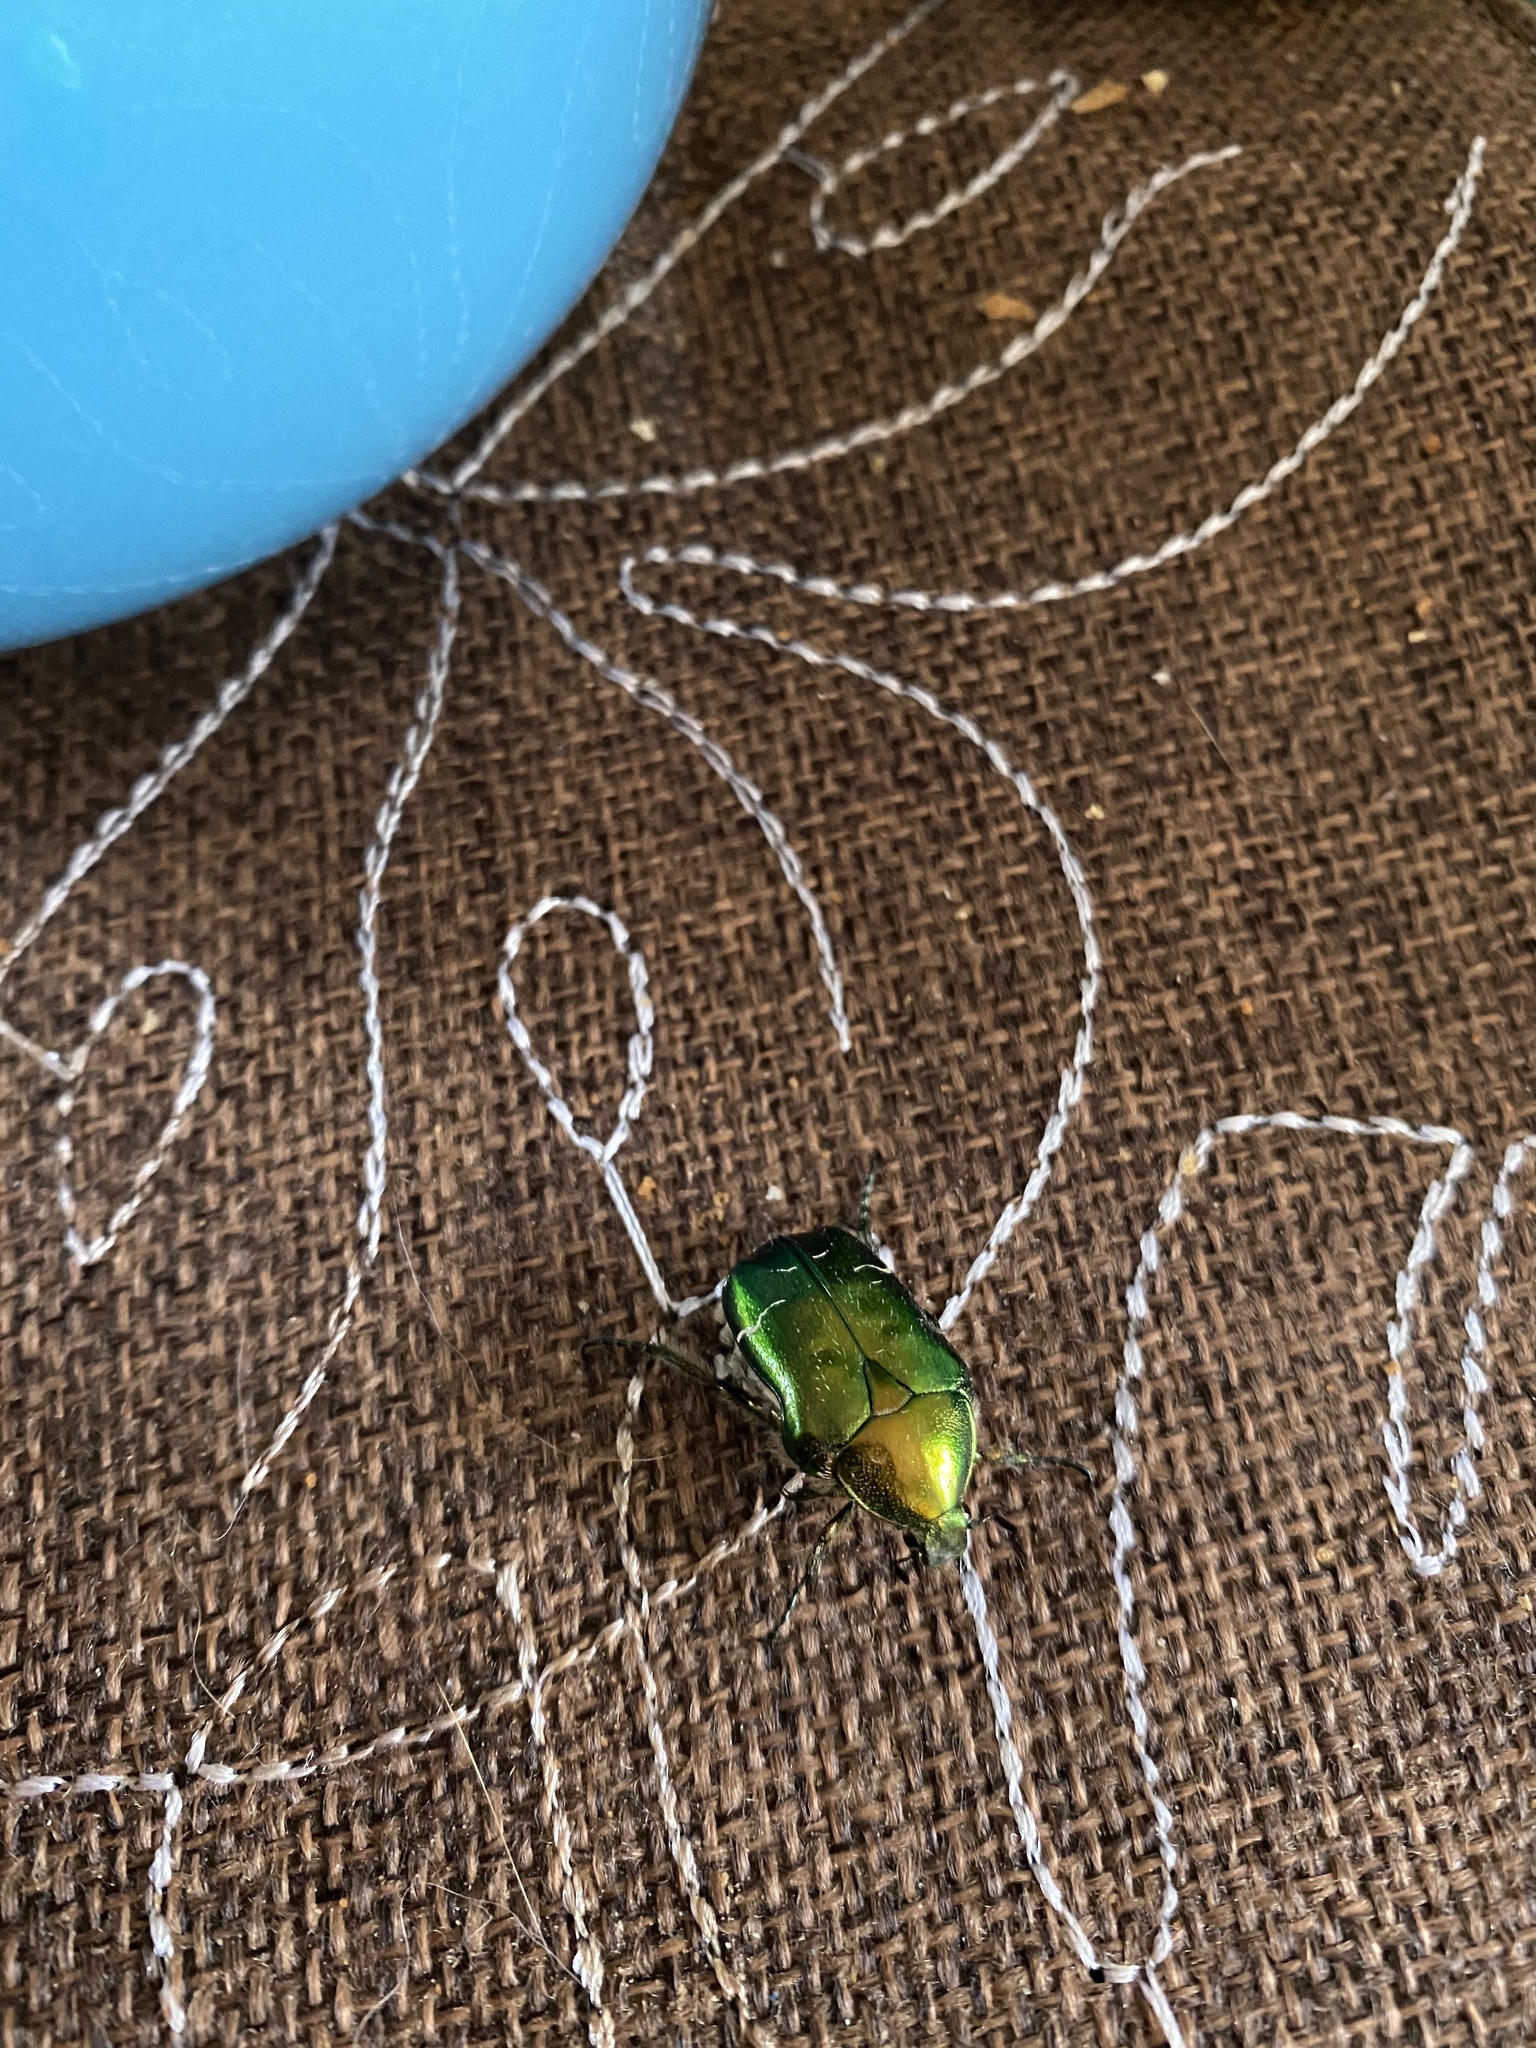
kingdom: Animalia
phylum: Arthropoda
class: Insecta
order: Coleoptera
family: Scarabaeidae
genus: Cetonia
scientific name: Cetonia aurata
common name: Rose chafer
